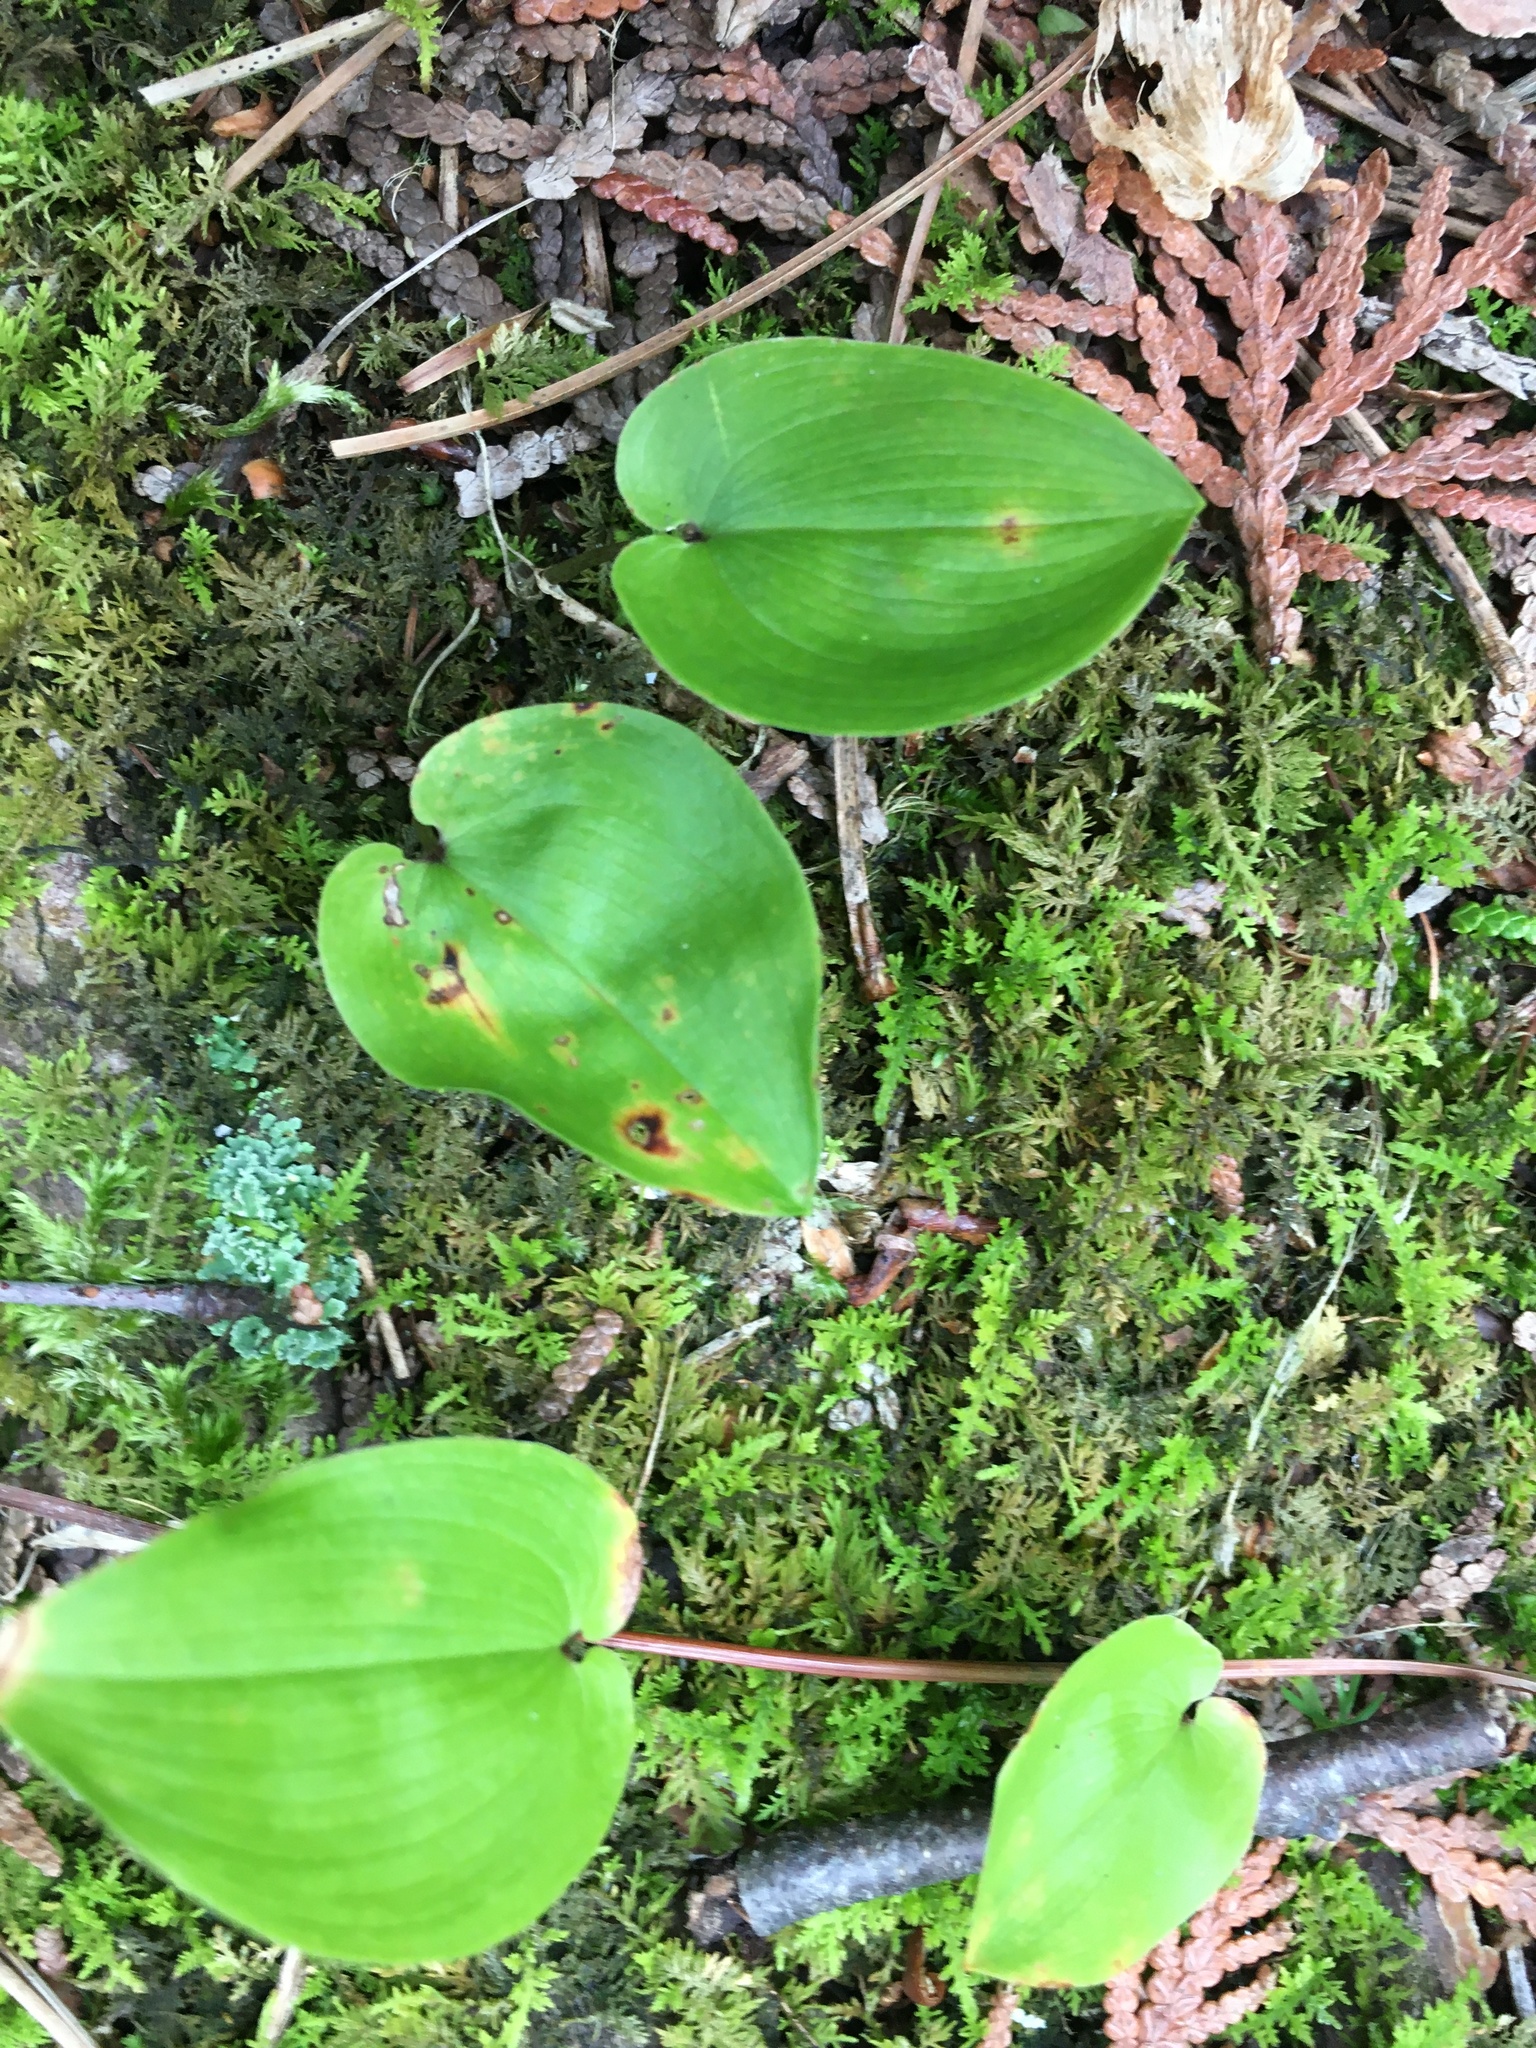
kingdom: Plantae
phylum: Tracheophyta
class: Liliopsida
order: Asparagales
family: Asparagaceae
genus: Maianthemum
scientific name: Maianthemum canadense
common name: False lily-of-the-valley
